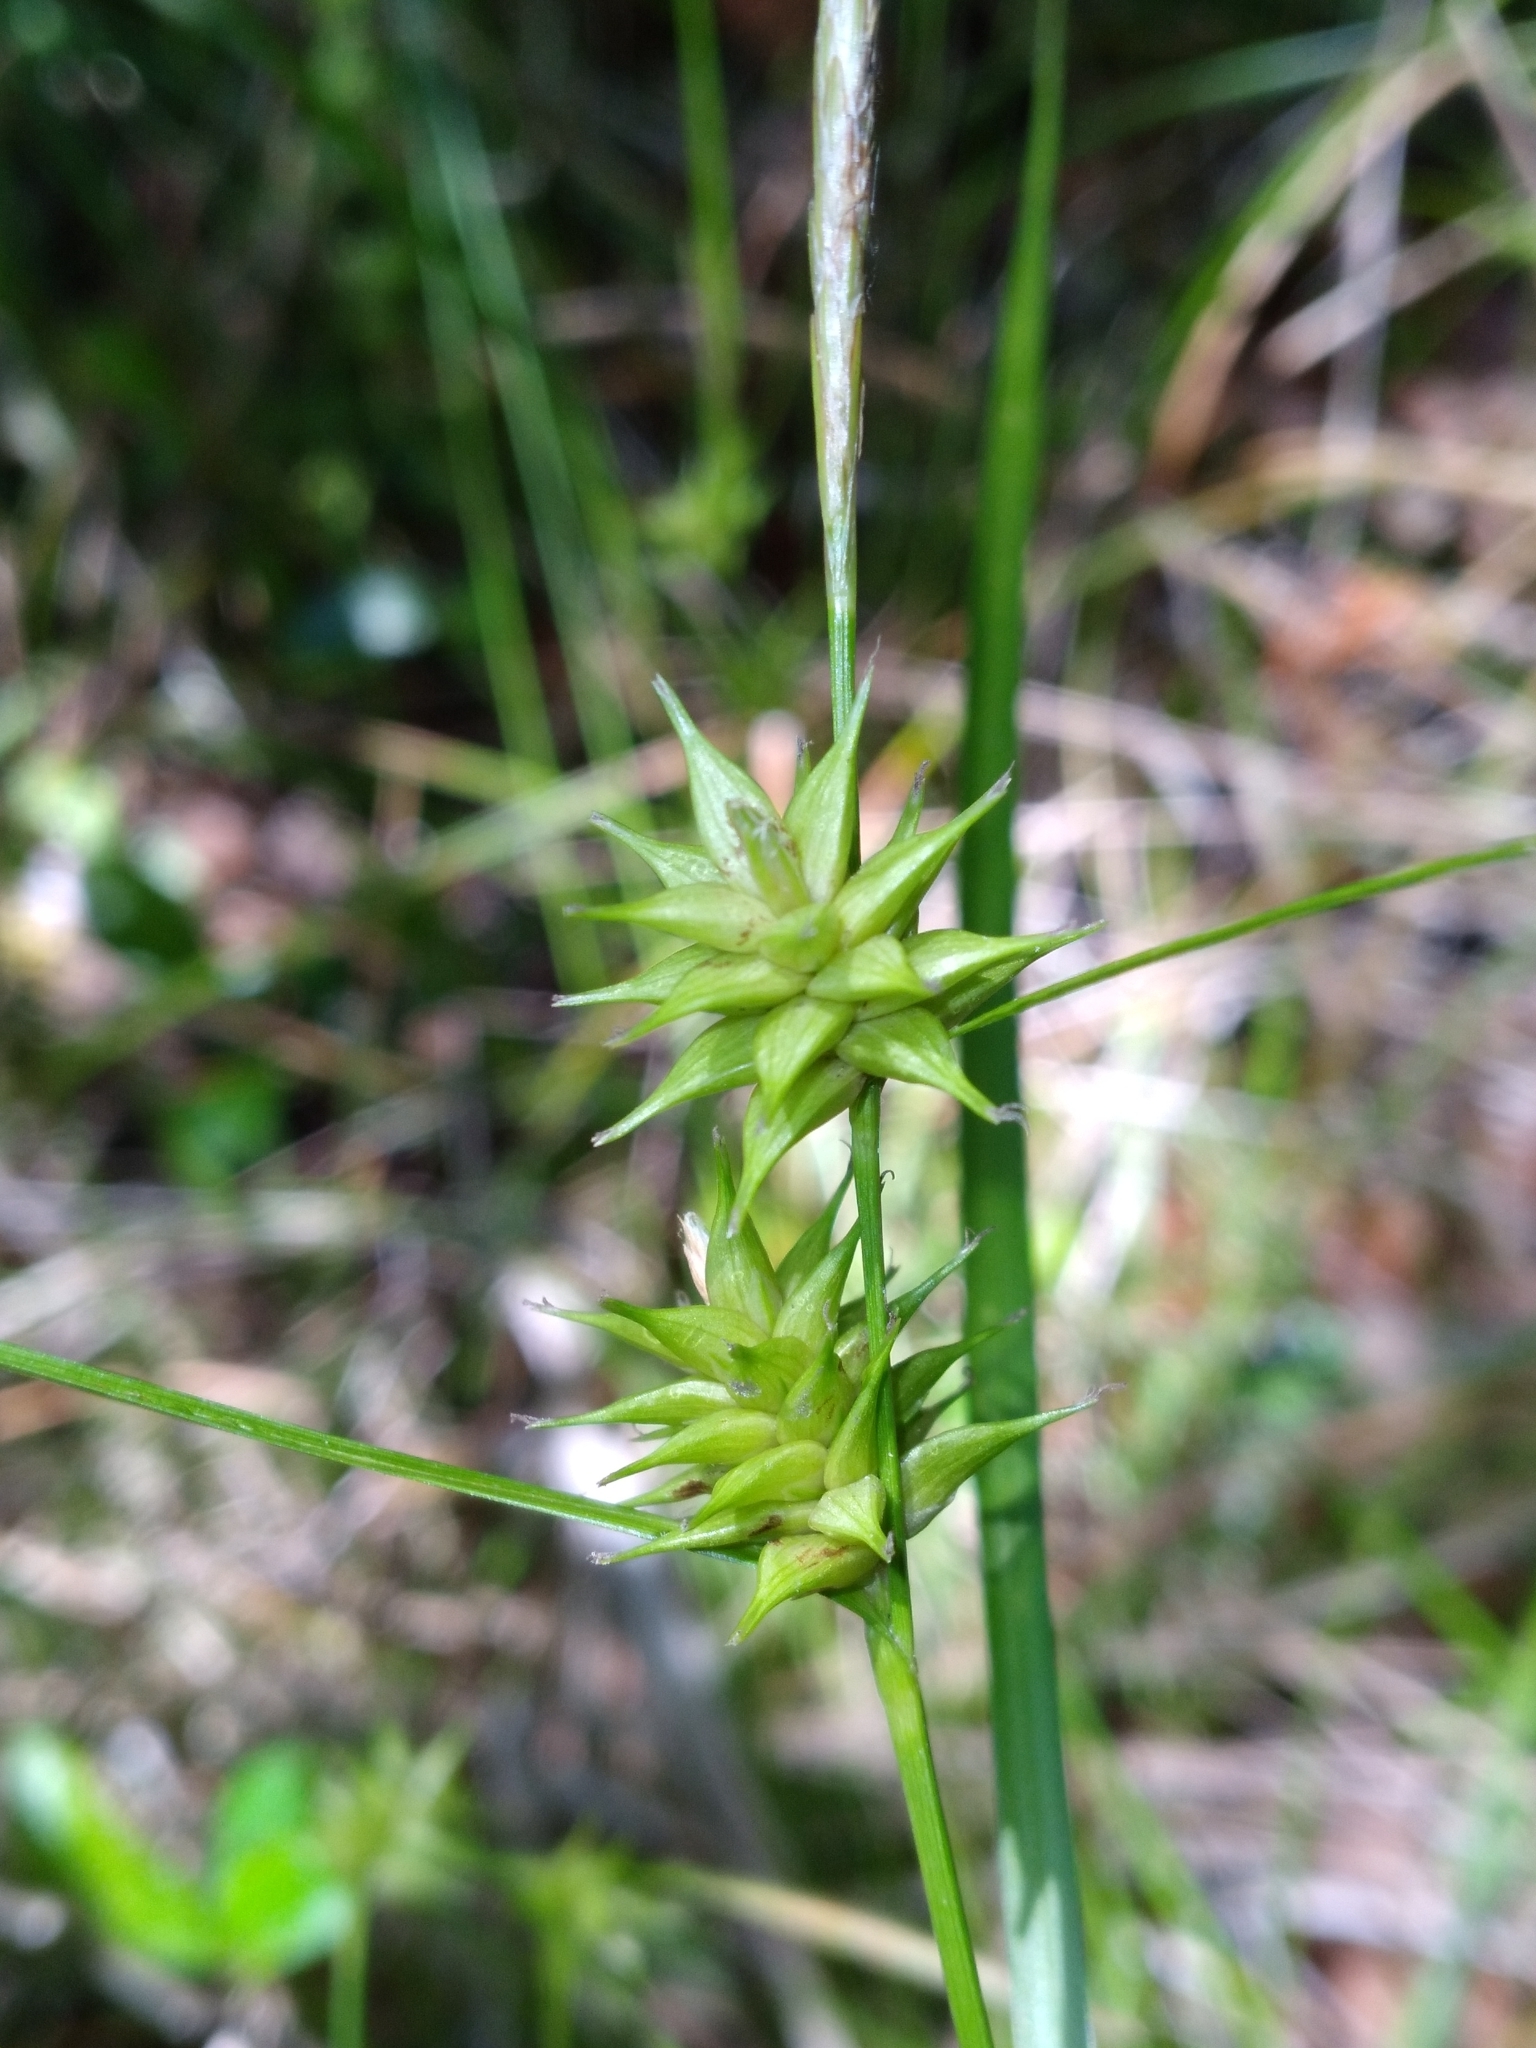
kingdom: Plantae
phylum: Tracheophyta
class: Liliopsida
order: Poales
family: Cyperaceae
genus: Carex
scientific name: Carex elliottii
